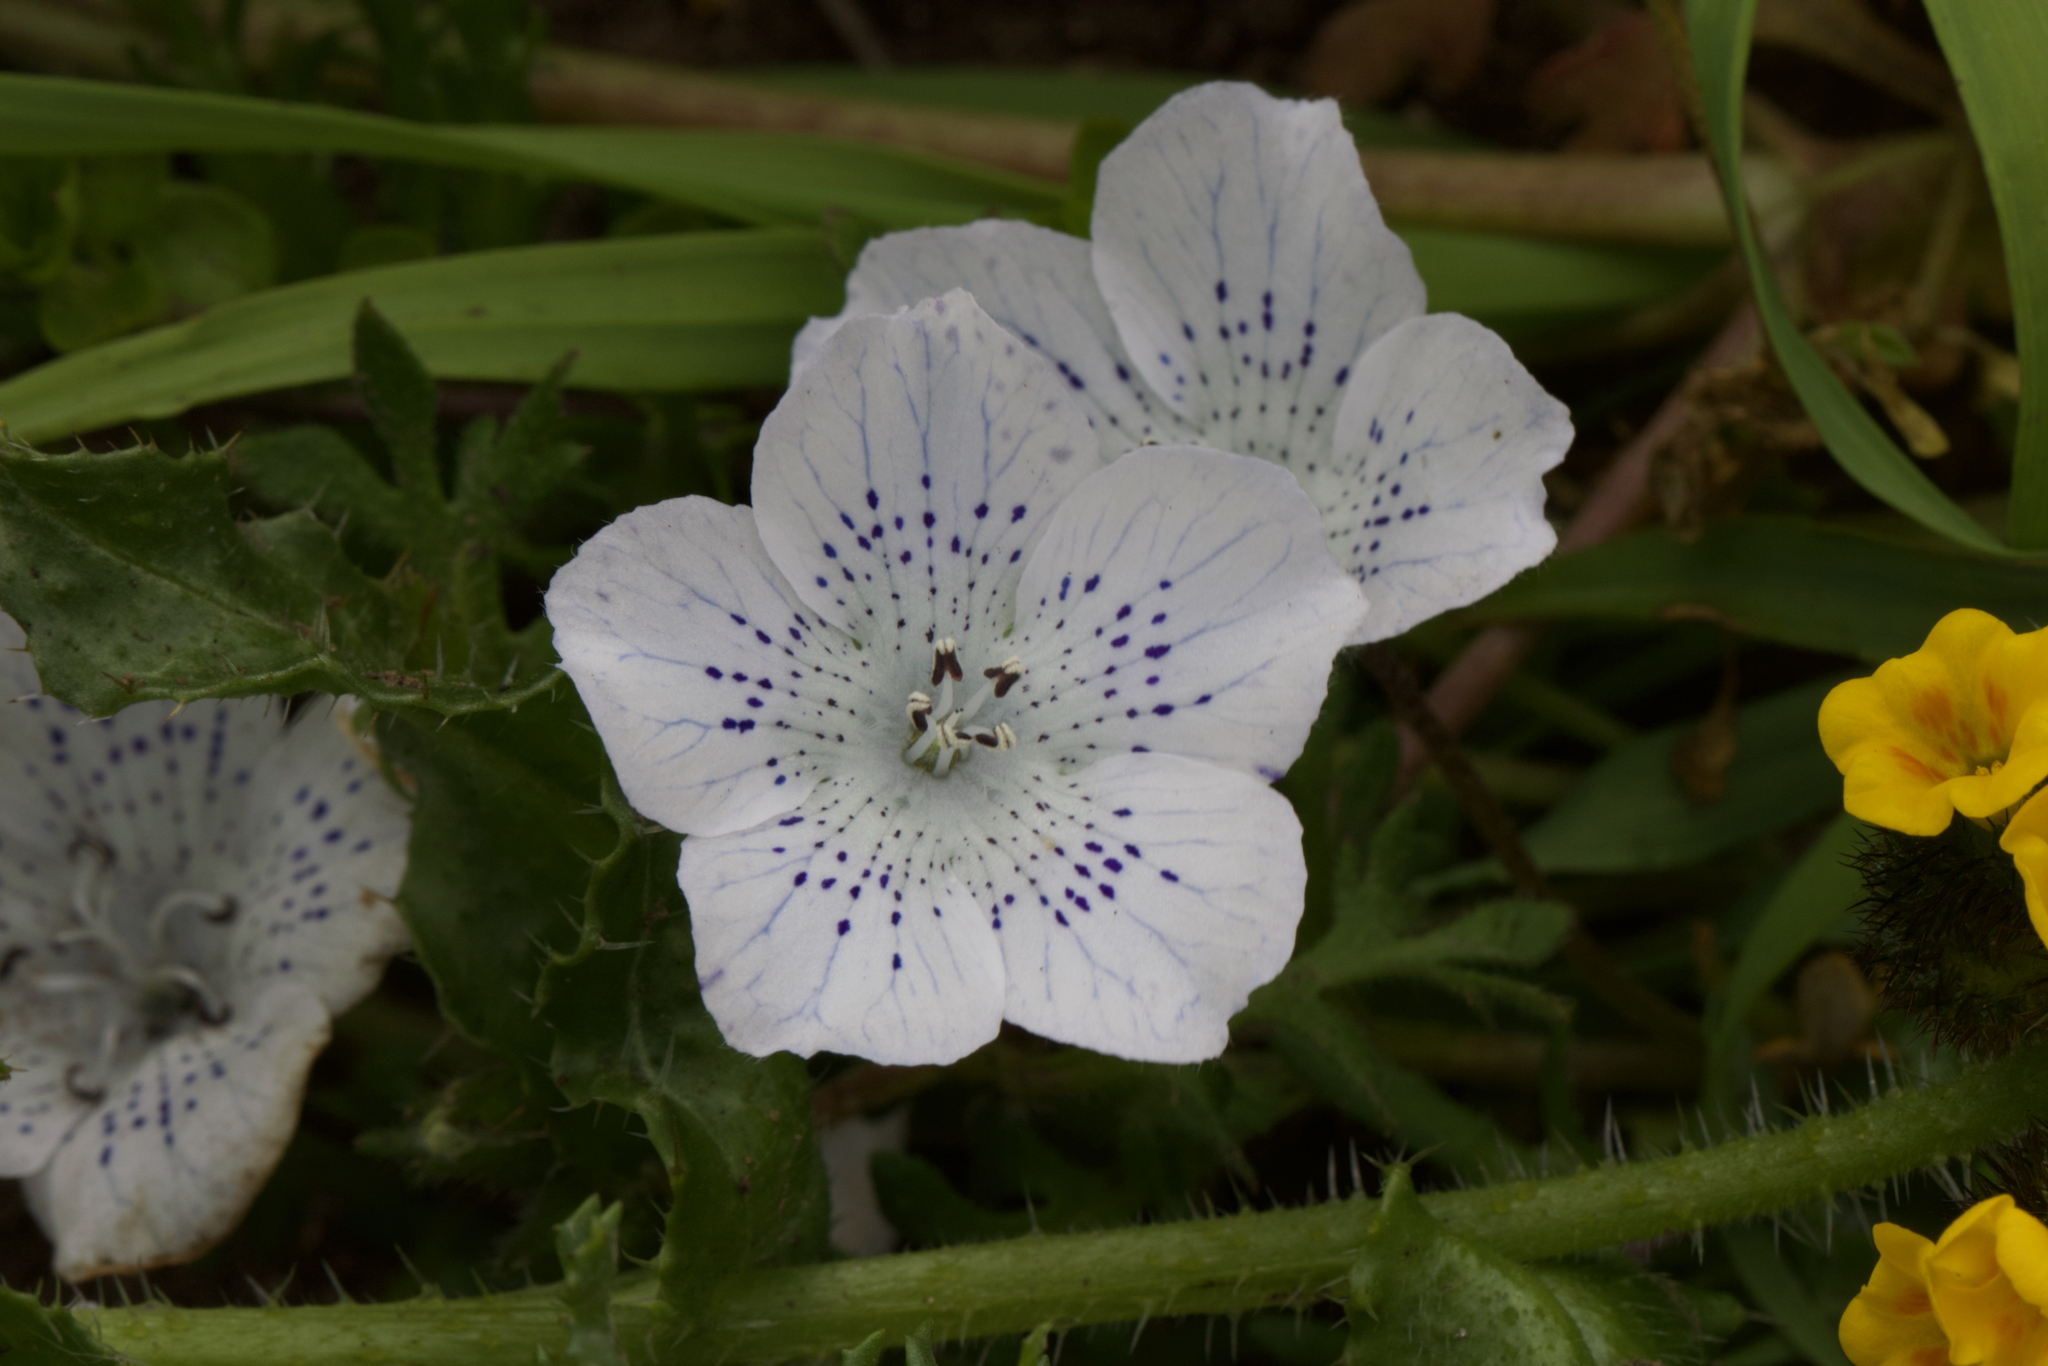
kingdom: Plantae
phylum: Tracheophyta
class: Magnoliopsida
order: Boraginales
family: Hydrophyllaceae
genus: Nemophila
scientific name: Nemophila menziesii
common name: Baby's-blue-eyes
